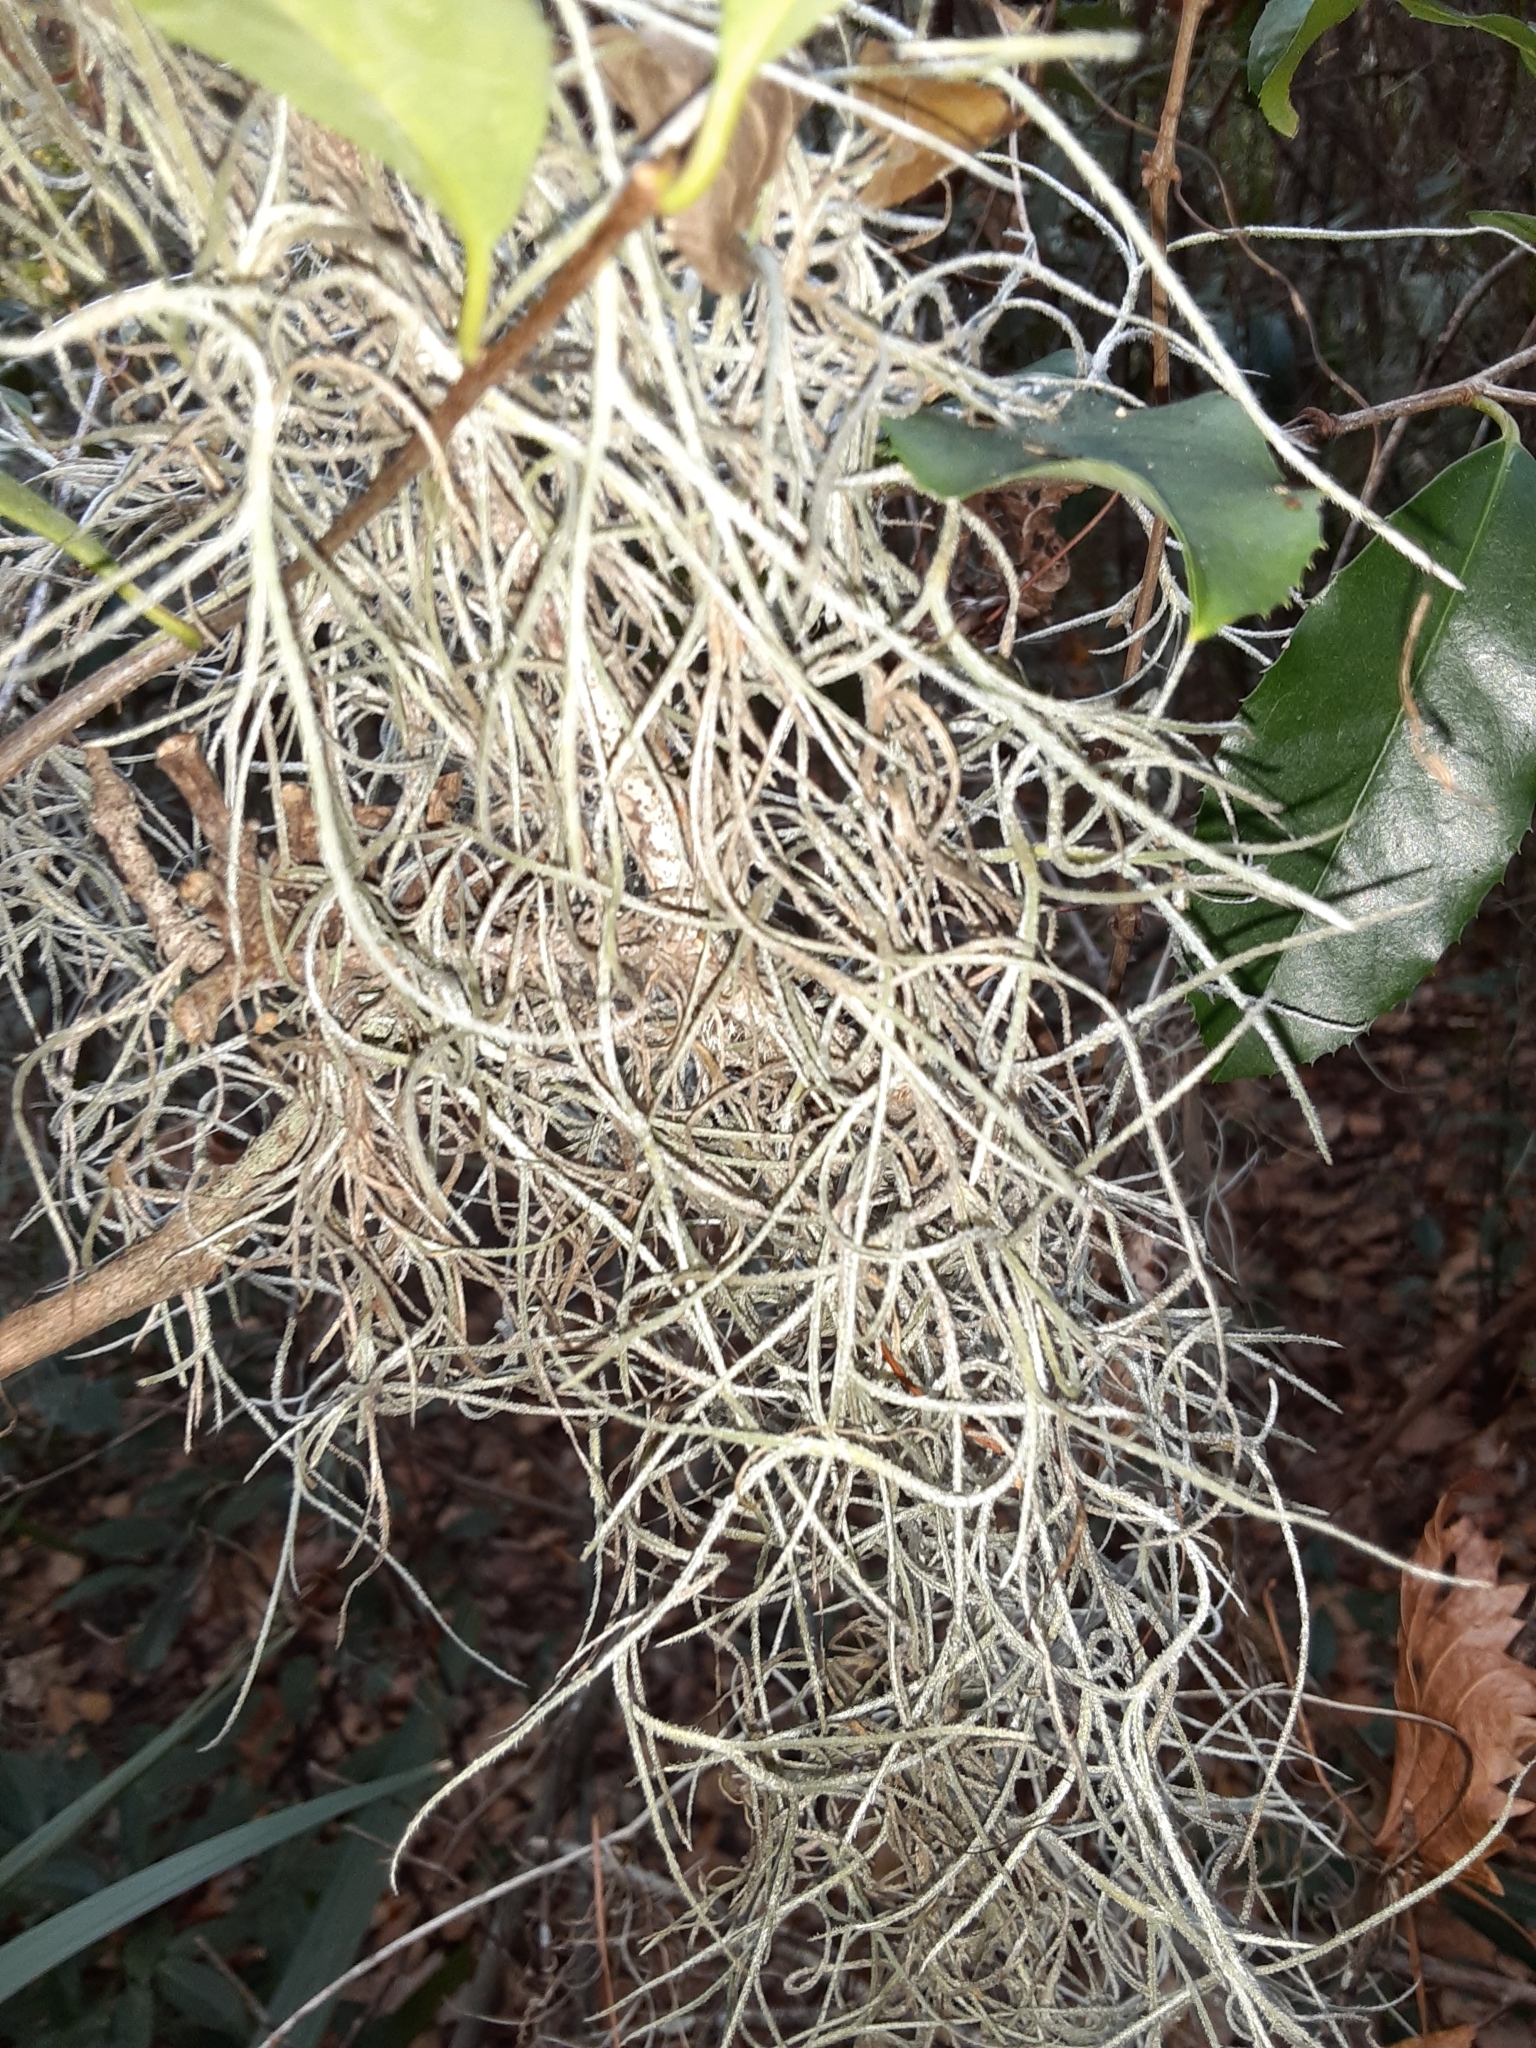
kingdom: Plantae
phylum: Tracheophyta
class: Liliopsida
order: Poales
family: Bromeliaceae
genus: Tillandsia
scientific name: Tillandsia usneoides
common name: Spanish moss
